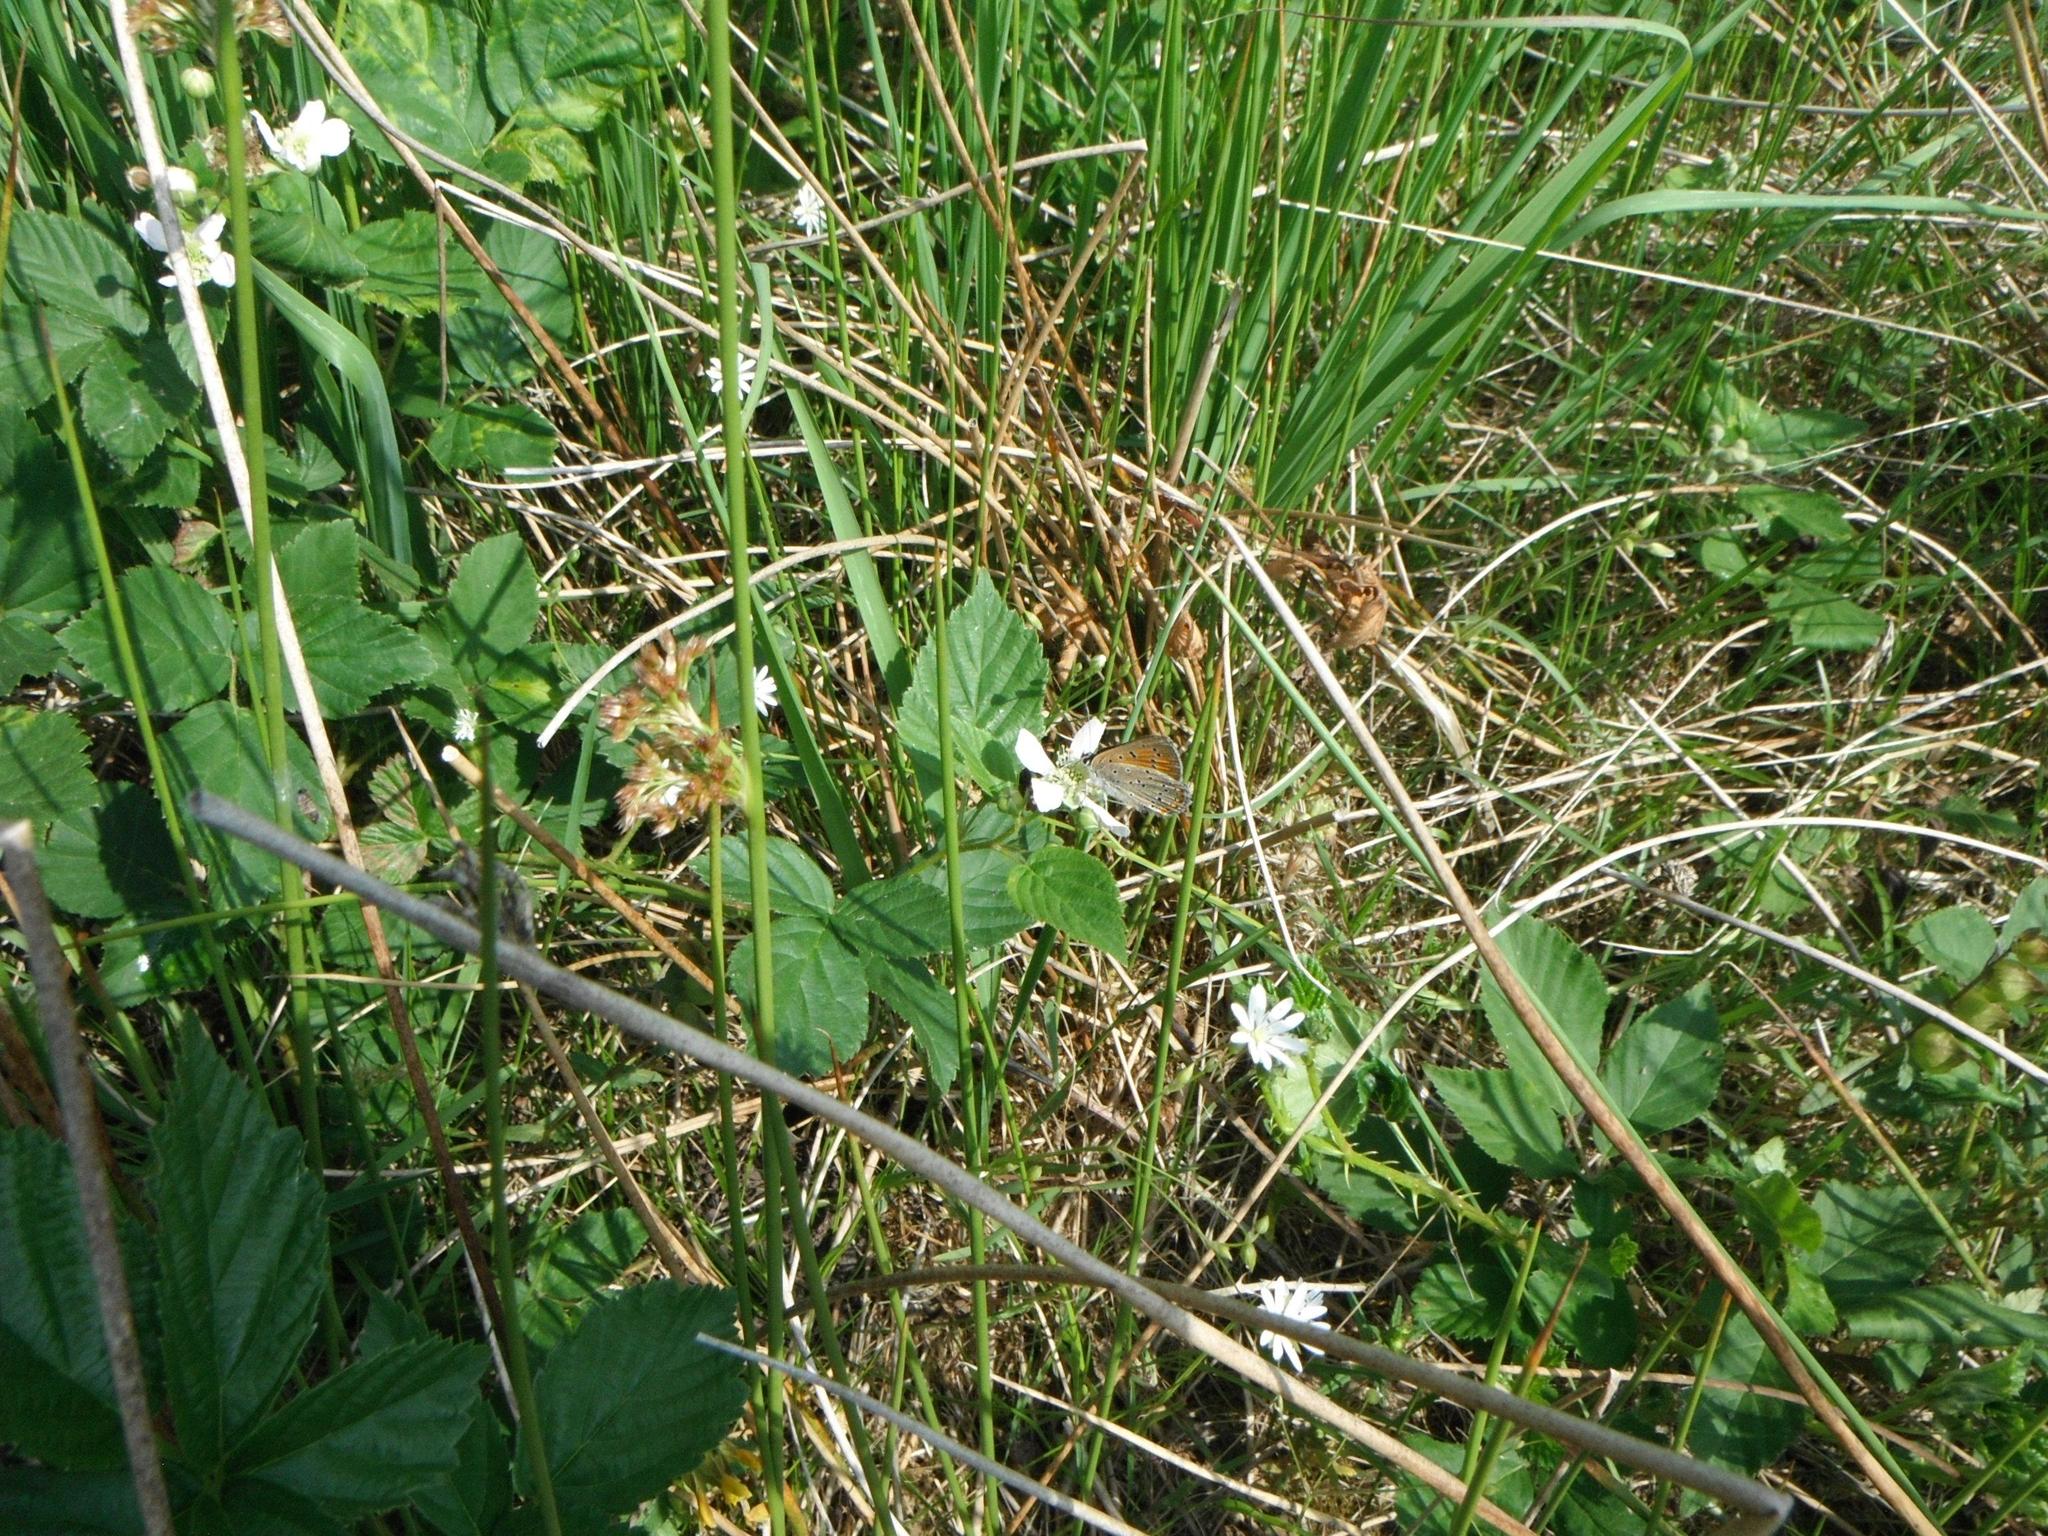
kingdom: Animalia
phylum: Arthropoda
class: Insecta
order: Lepidoptera
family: Lycaenidae
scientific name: Lycaenidae
